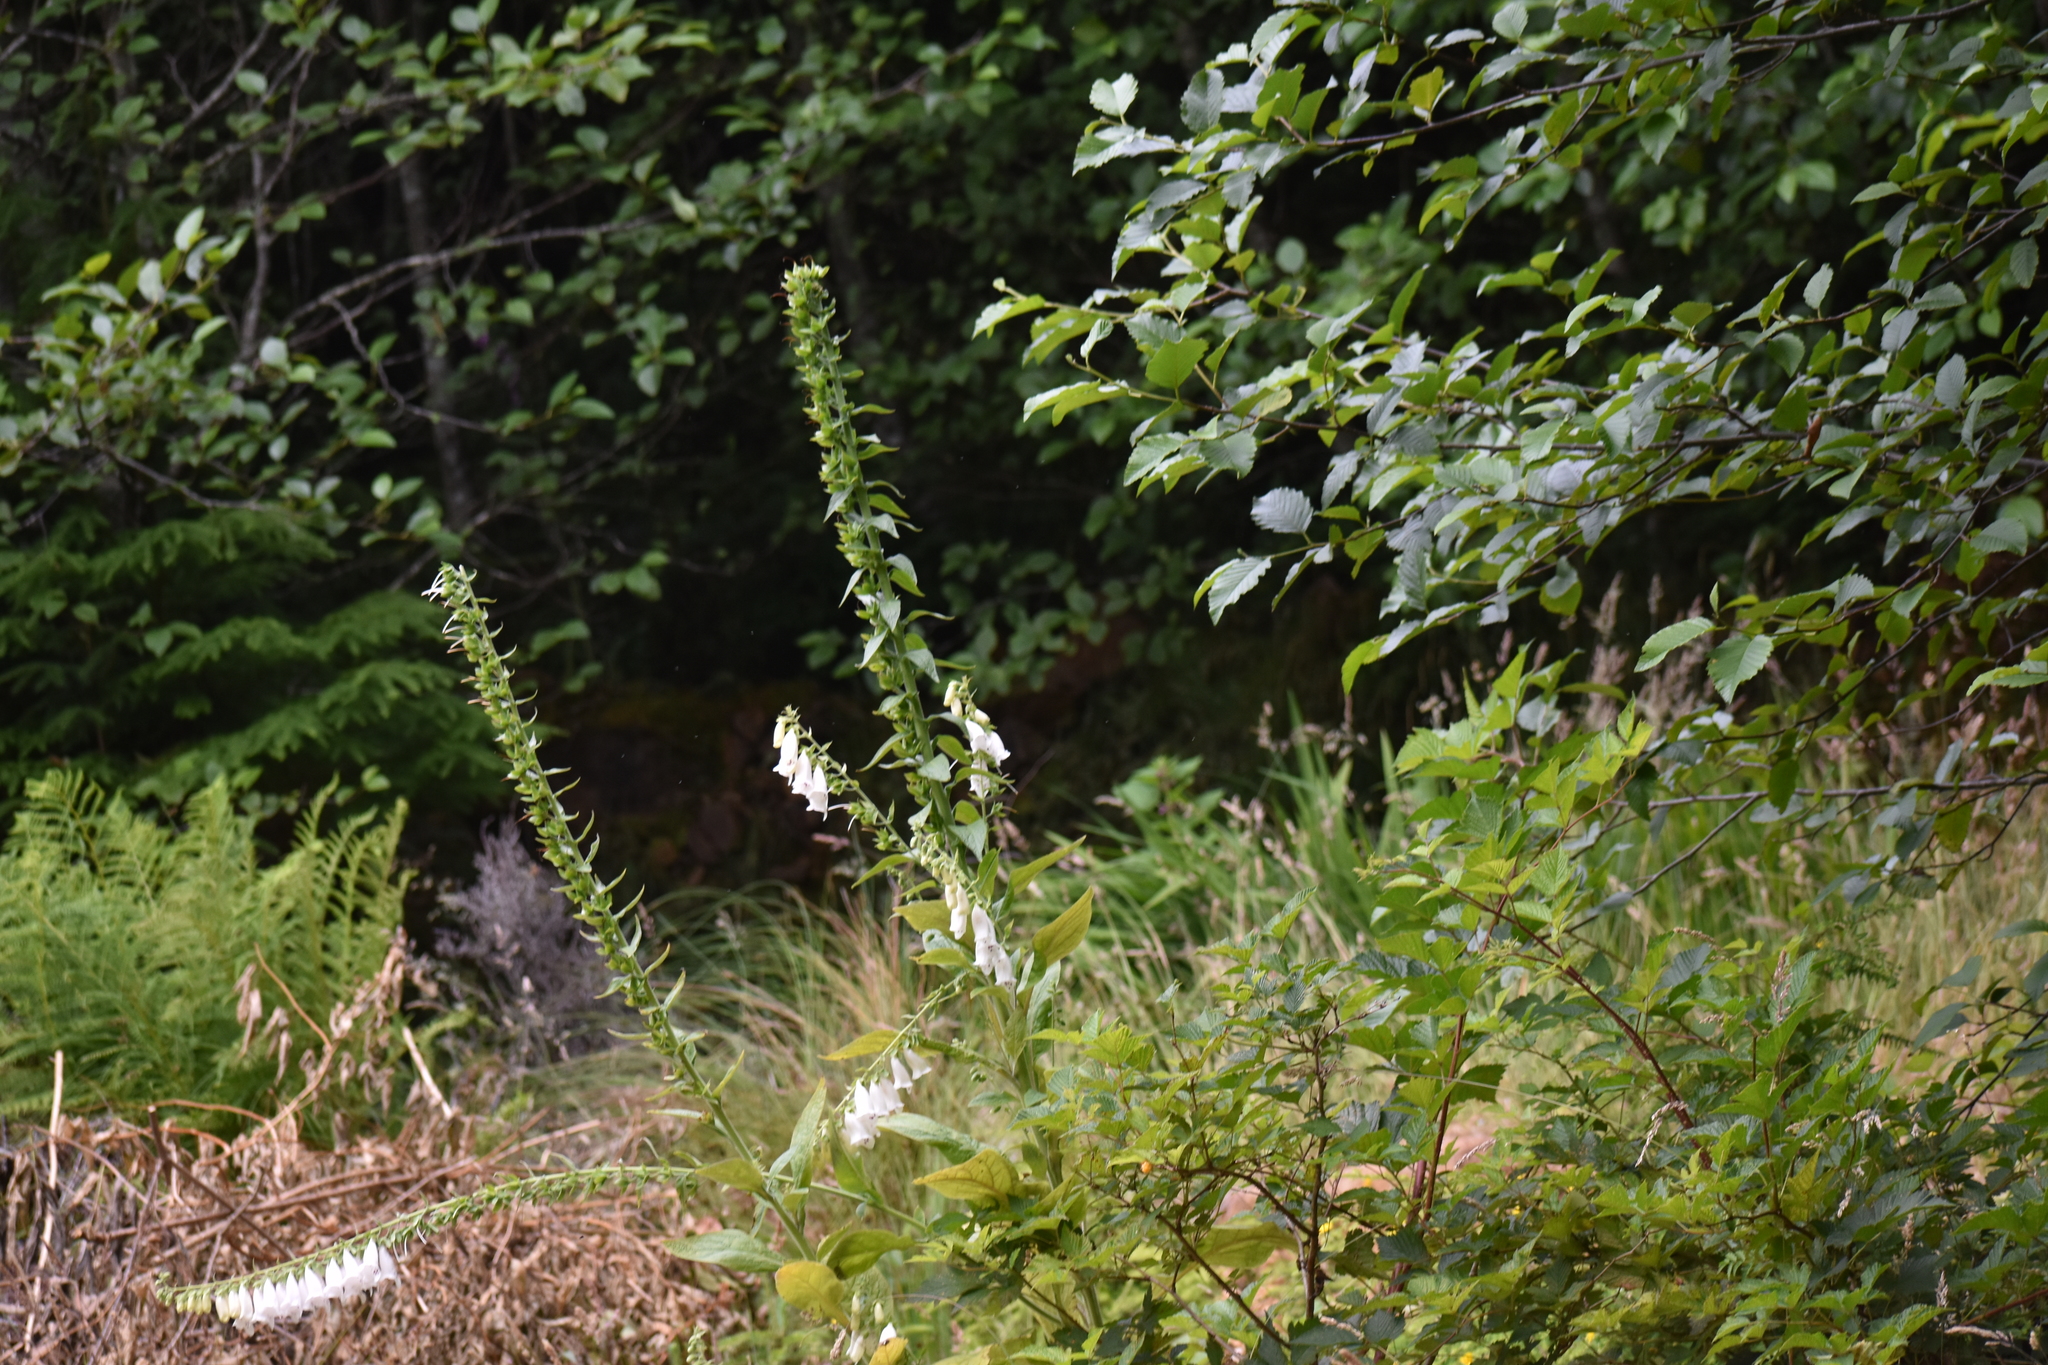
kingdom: Plantae
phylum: Tracheophyta
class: Magnoliopsida
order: Lamiales
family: Plantaginaceae
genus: Digitalis
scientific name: Digitalis purpurea
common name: Foxglove
